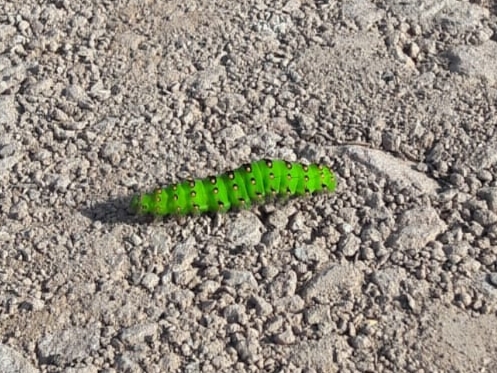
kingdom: Animalia
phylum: Arthropoda
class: Insecta
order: Lepidoptera
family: Saturniidae
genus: Saturnia
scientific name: Saturnia pavonia
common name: Emperor moth
